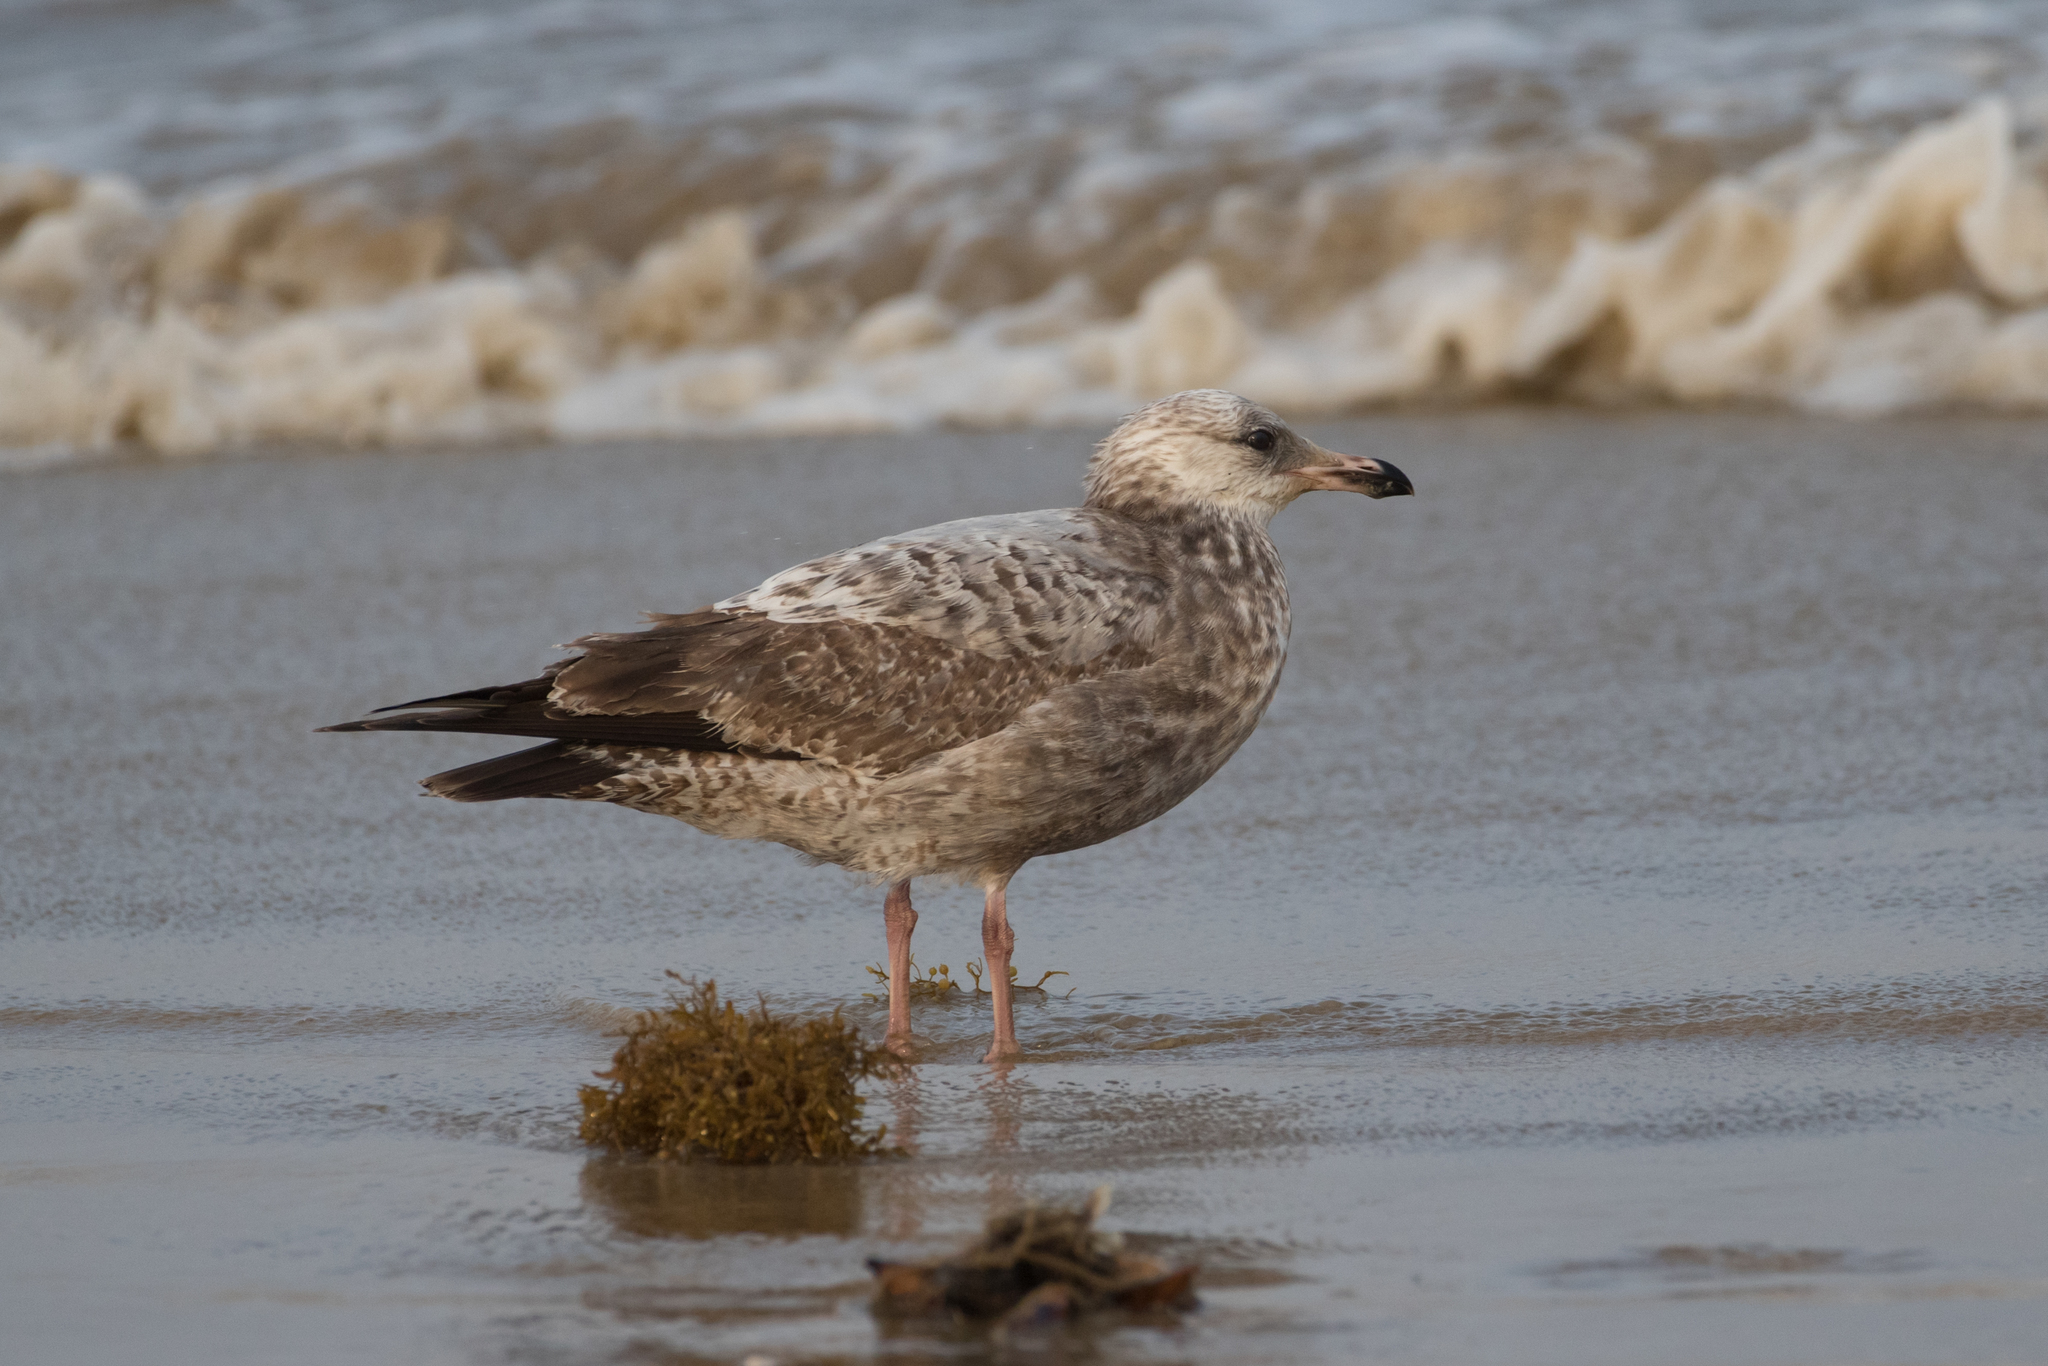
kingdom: Animalia
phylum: Chordata
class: Aves
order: Charadriiformes
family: Laridae
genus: Larus
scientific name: Larus argentatus
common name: Herring gull
